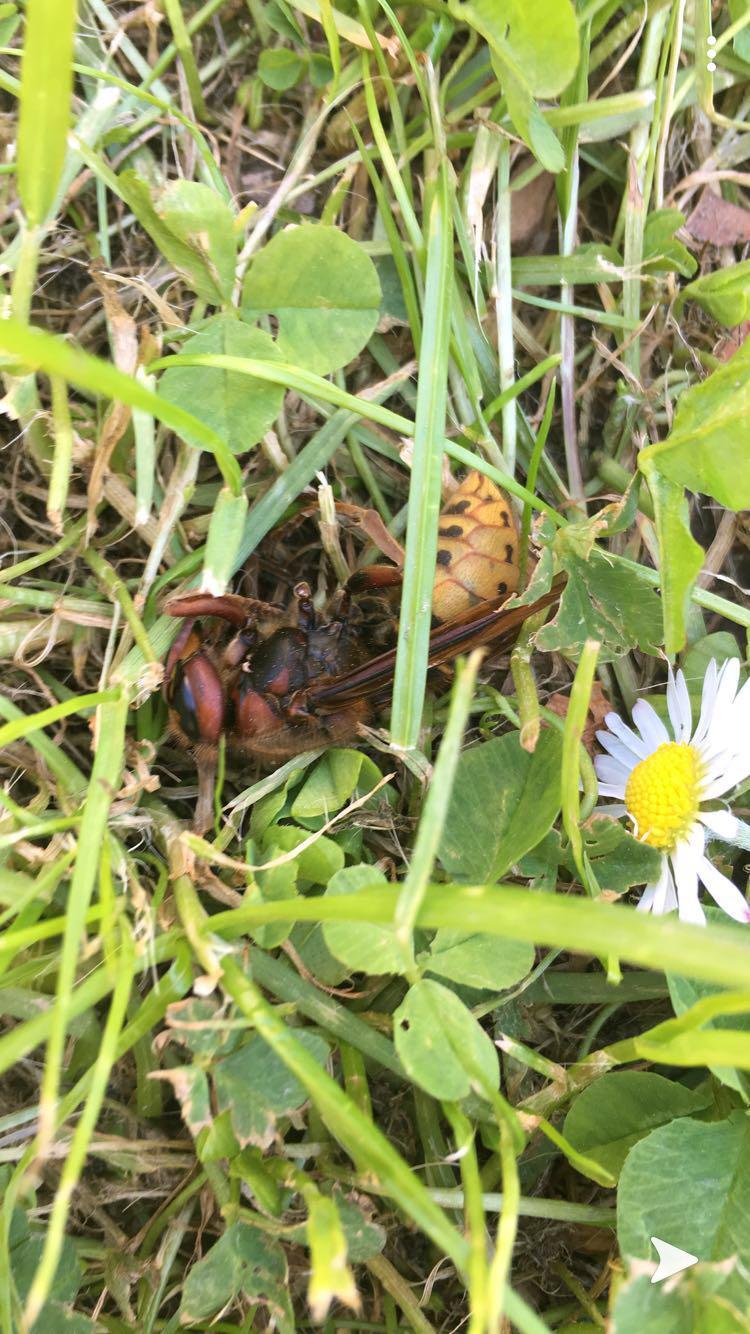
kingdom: Animalia
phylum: Arthropoda
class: Insecta
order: Hymenoptera
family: Vespidae
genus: Vespa
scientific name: Vespa crabro
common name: Hornet
